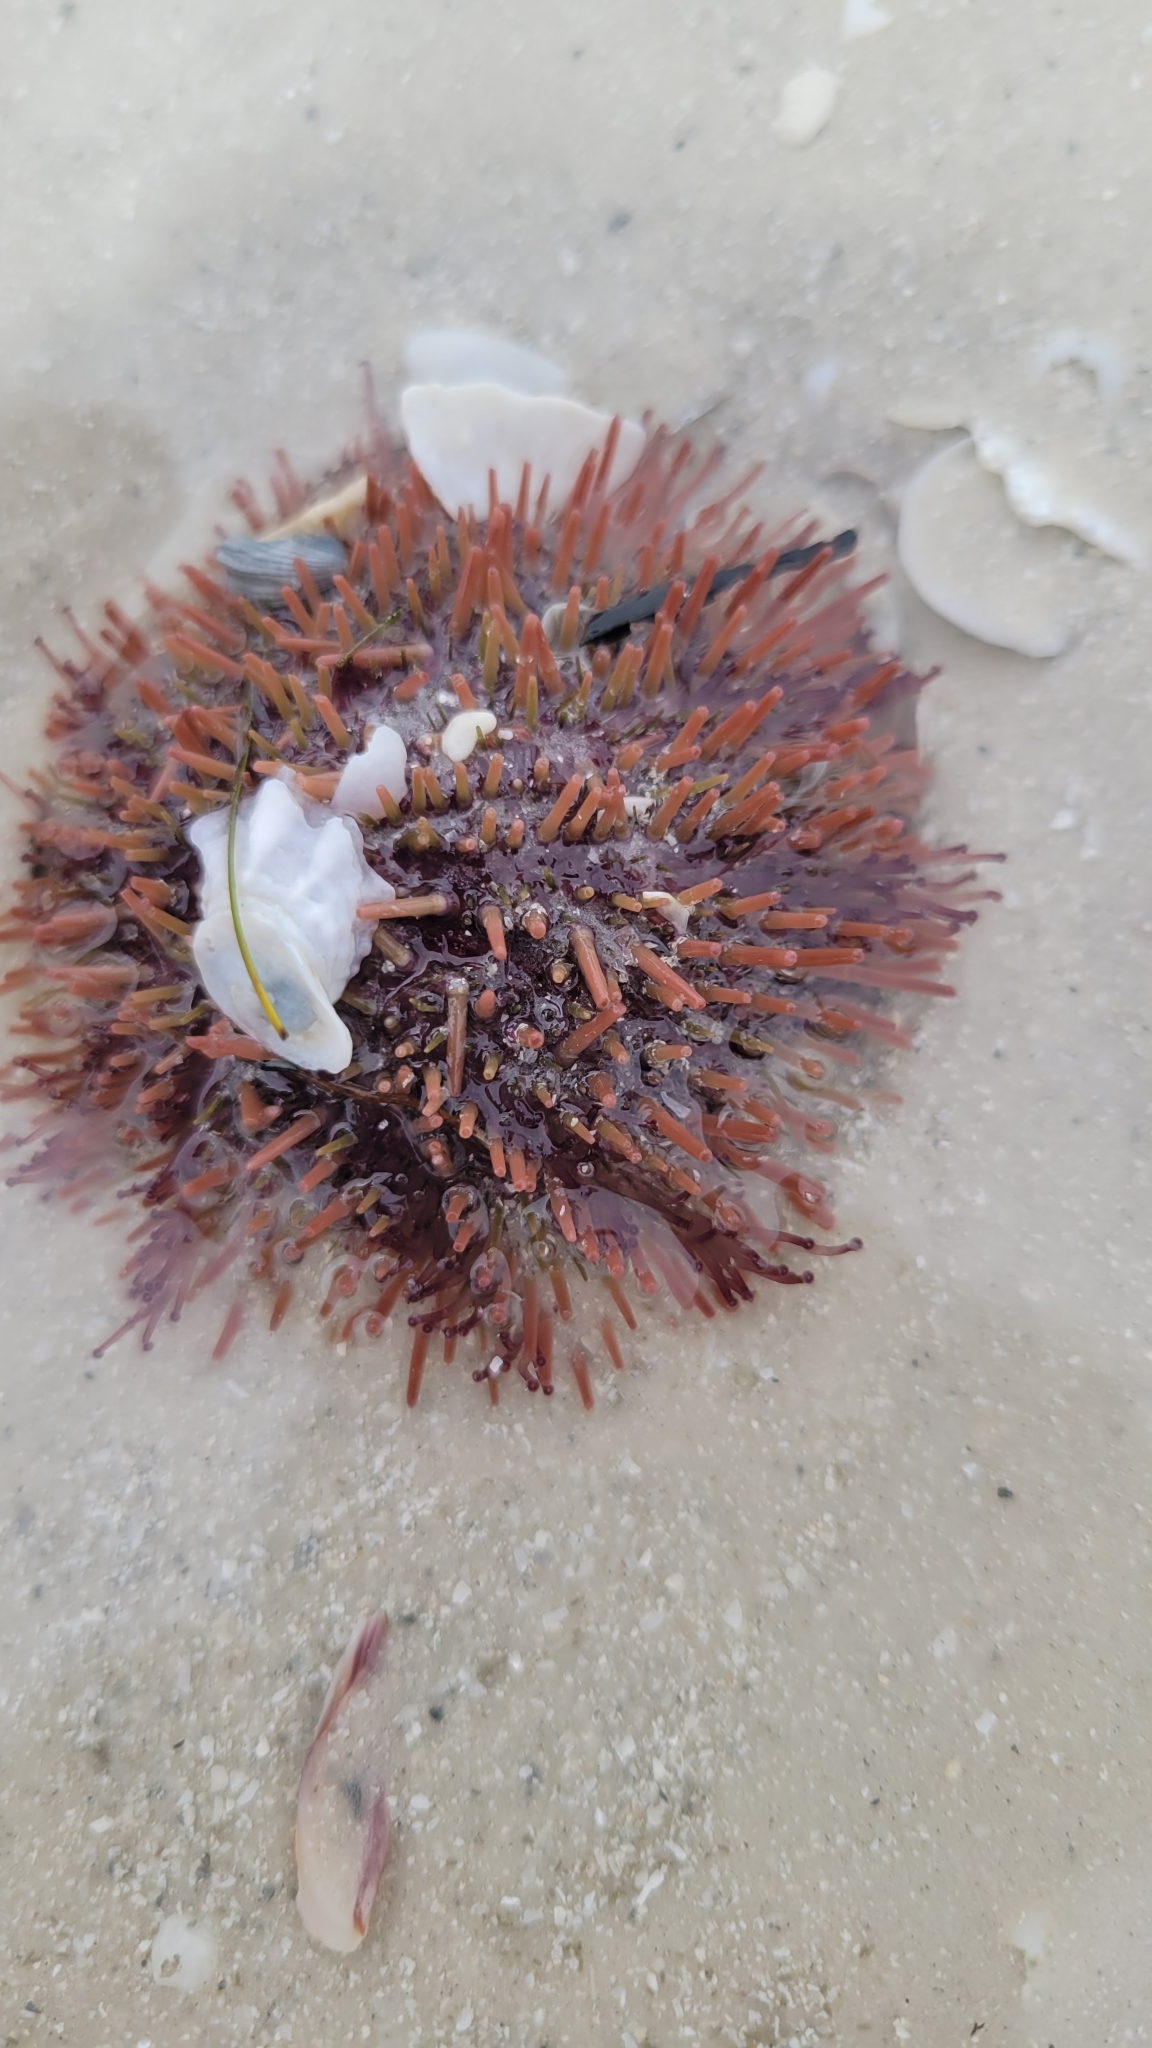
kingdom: Animalia
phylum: Echinodermata
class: Echinoidea
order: Camarodonta
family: Toxopneustidae
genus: Lytechinus
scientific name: Lytechinus variegatus
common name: Variegated urchin
